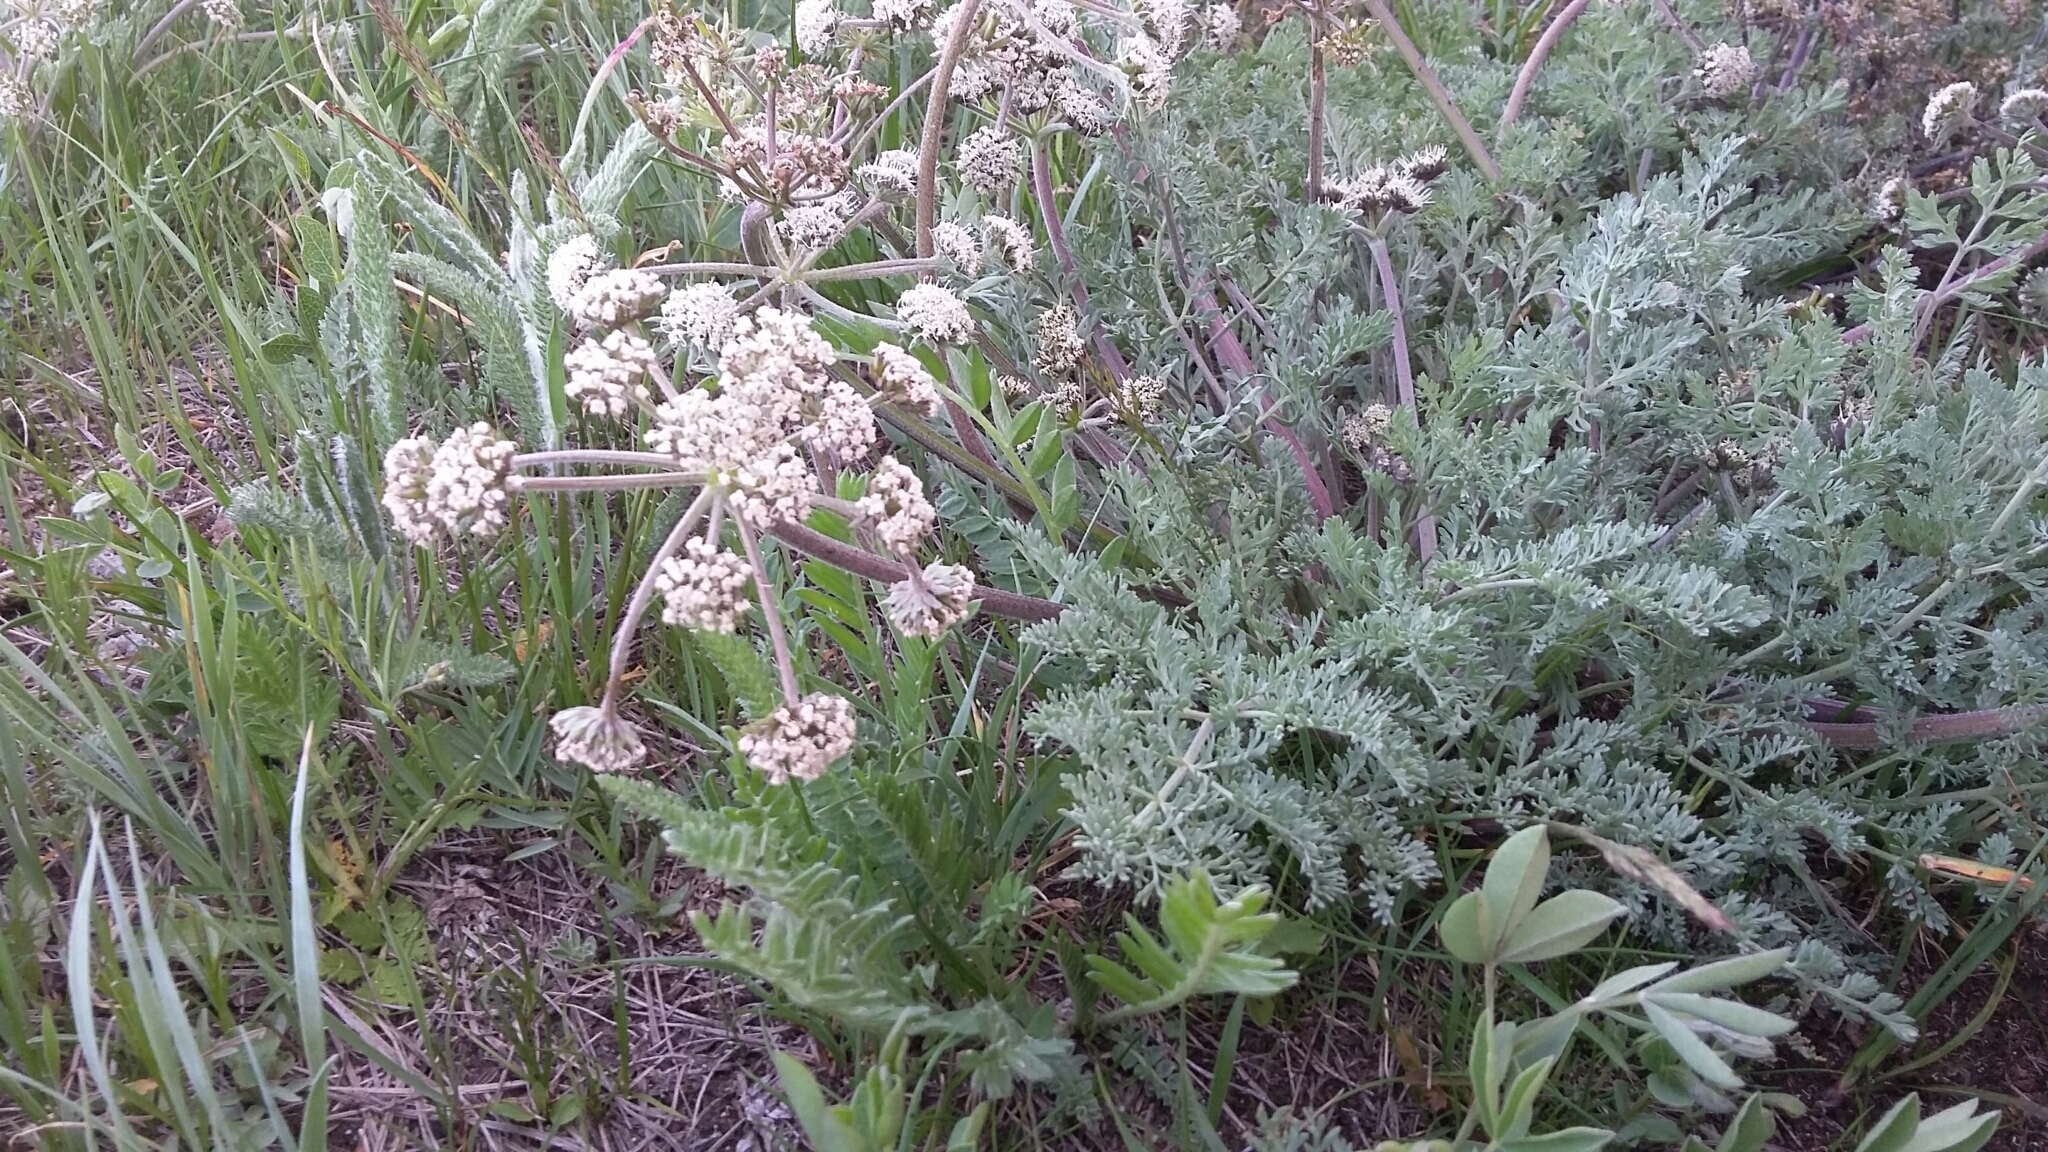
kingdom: Plantae
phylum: Tracheophyta
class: Magnoliopsida
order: Apiales
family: Apiaceae
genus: Lomatium
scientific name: Lomatium macrocarpum
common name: Big-seed biscuitroot
